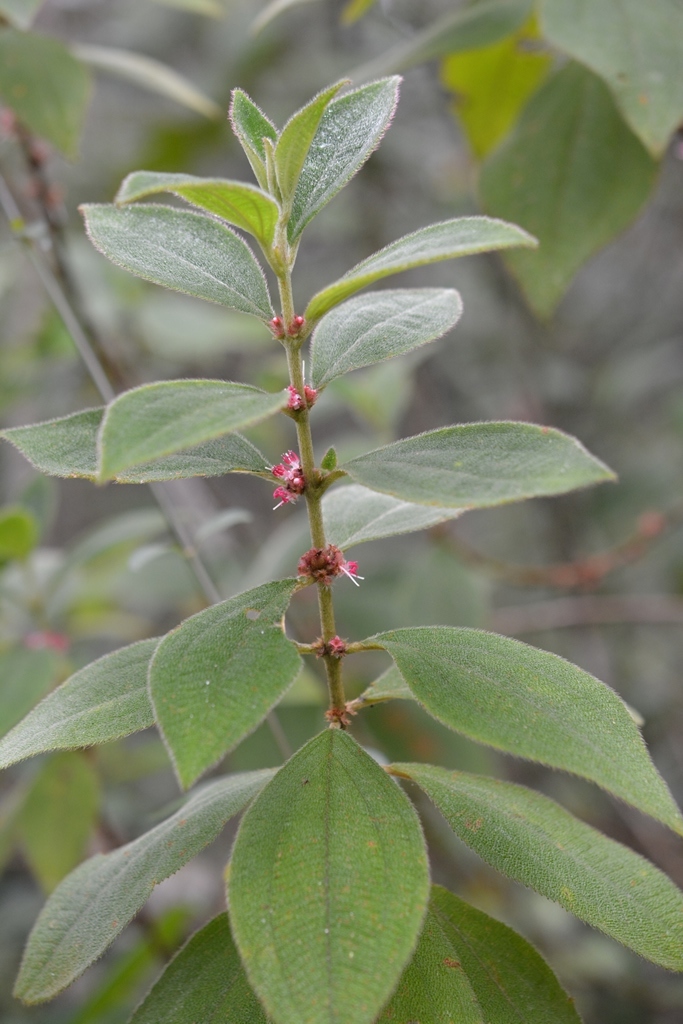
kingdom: Plantae
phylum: Tracheophyta
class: Magnoliopsida
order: Myrtales
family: Melastomataceae
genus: Miconia
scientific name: Miconia sericea
